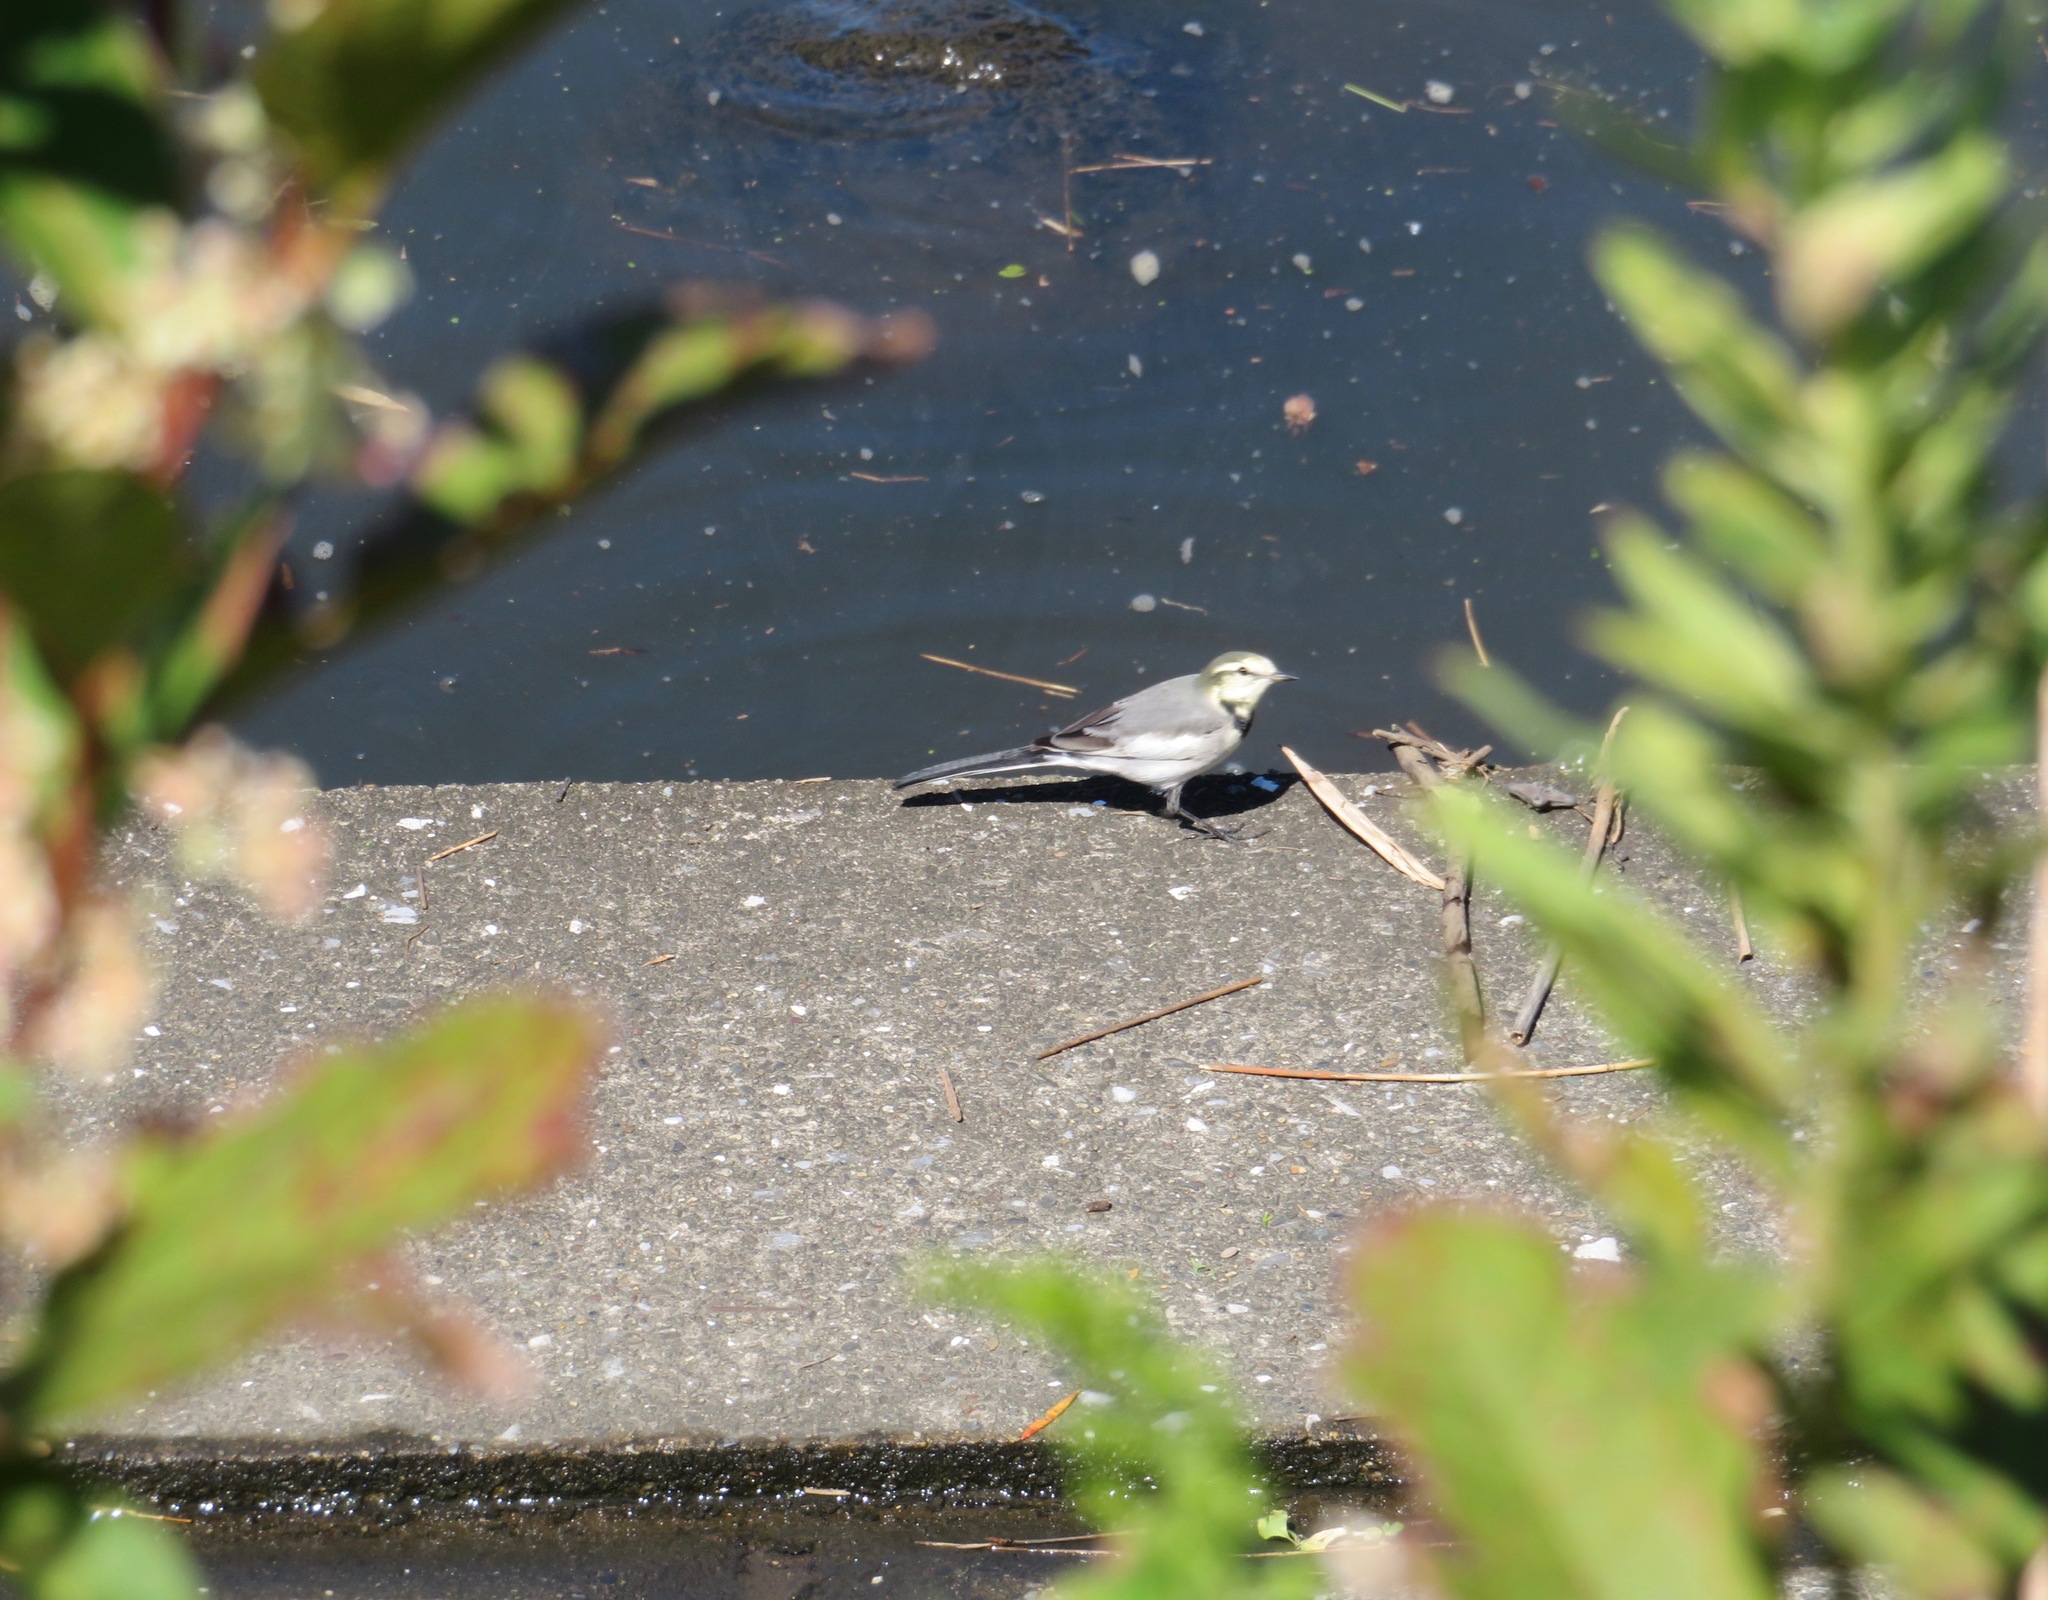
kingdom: Animalia
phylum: Chordata
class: Aves
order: Passeriformes
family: Motacillidae
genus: Motacilla
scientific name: Motacilla alba
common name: White wagtail
